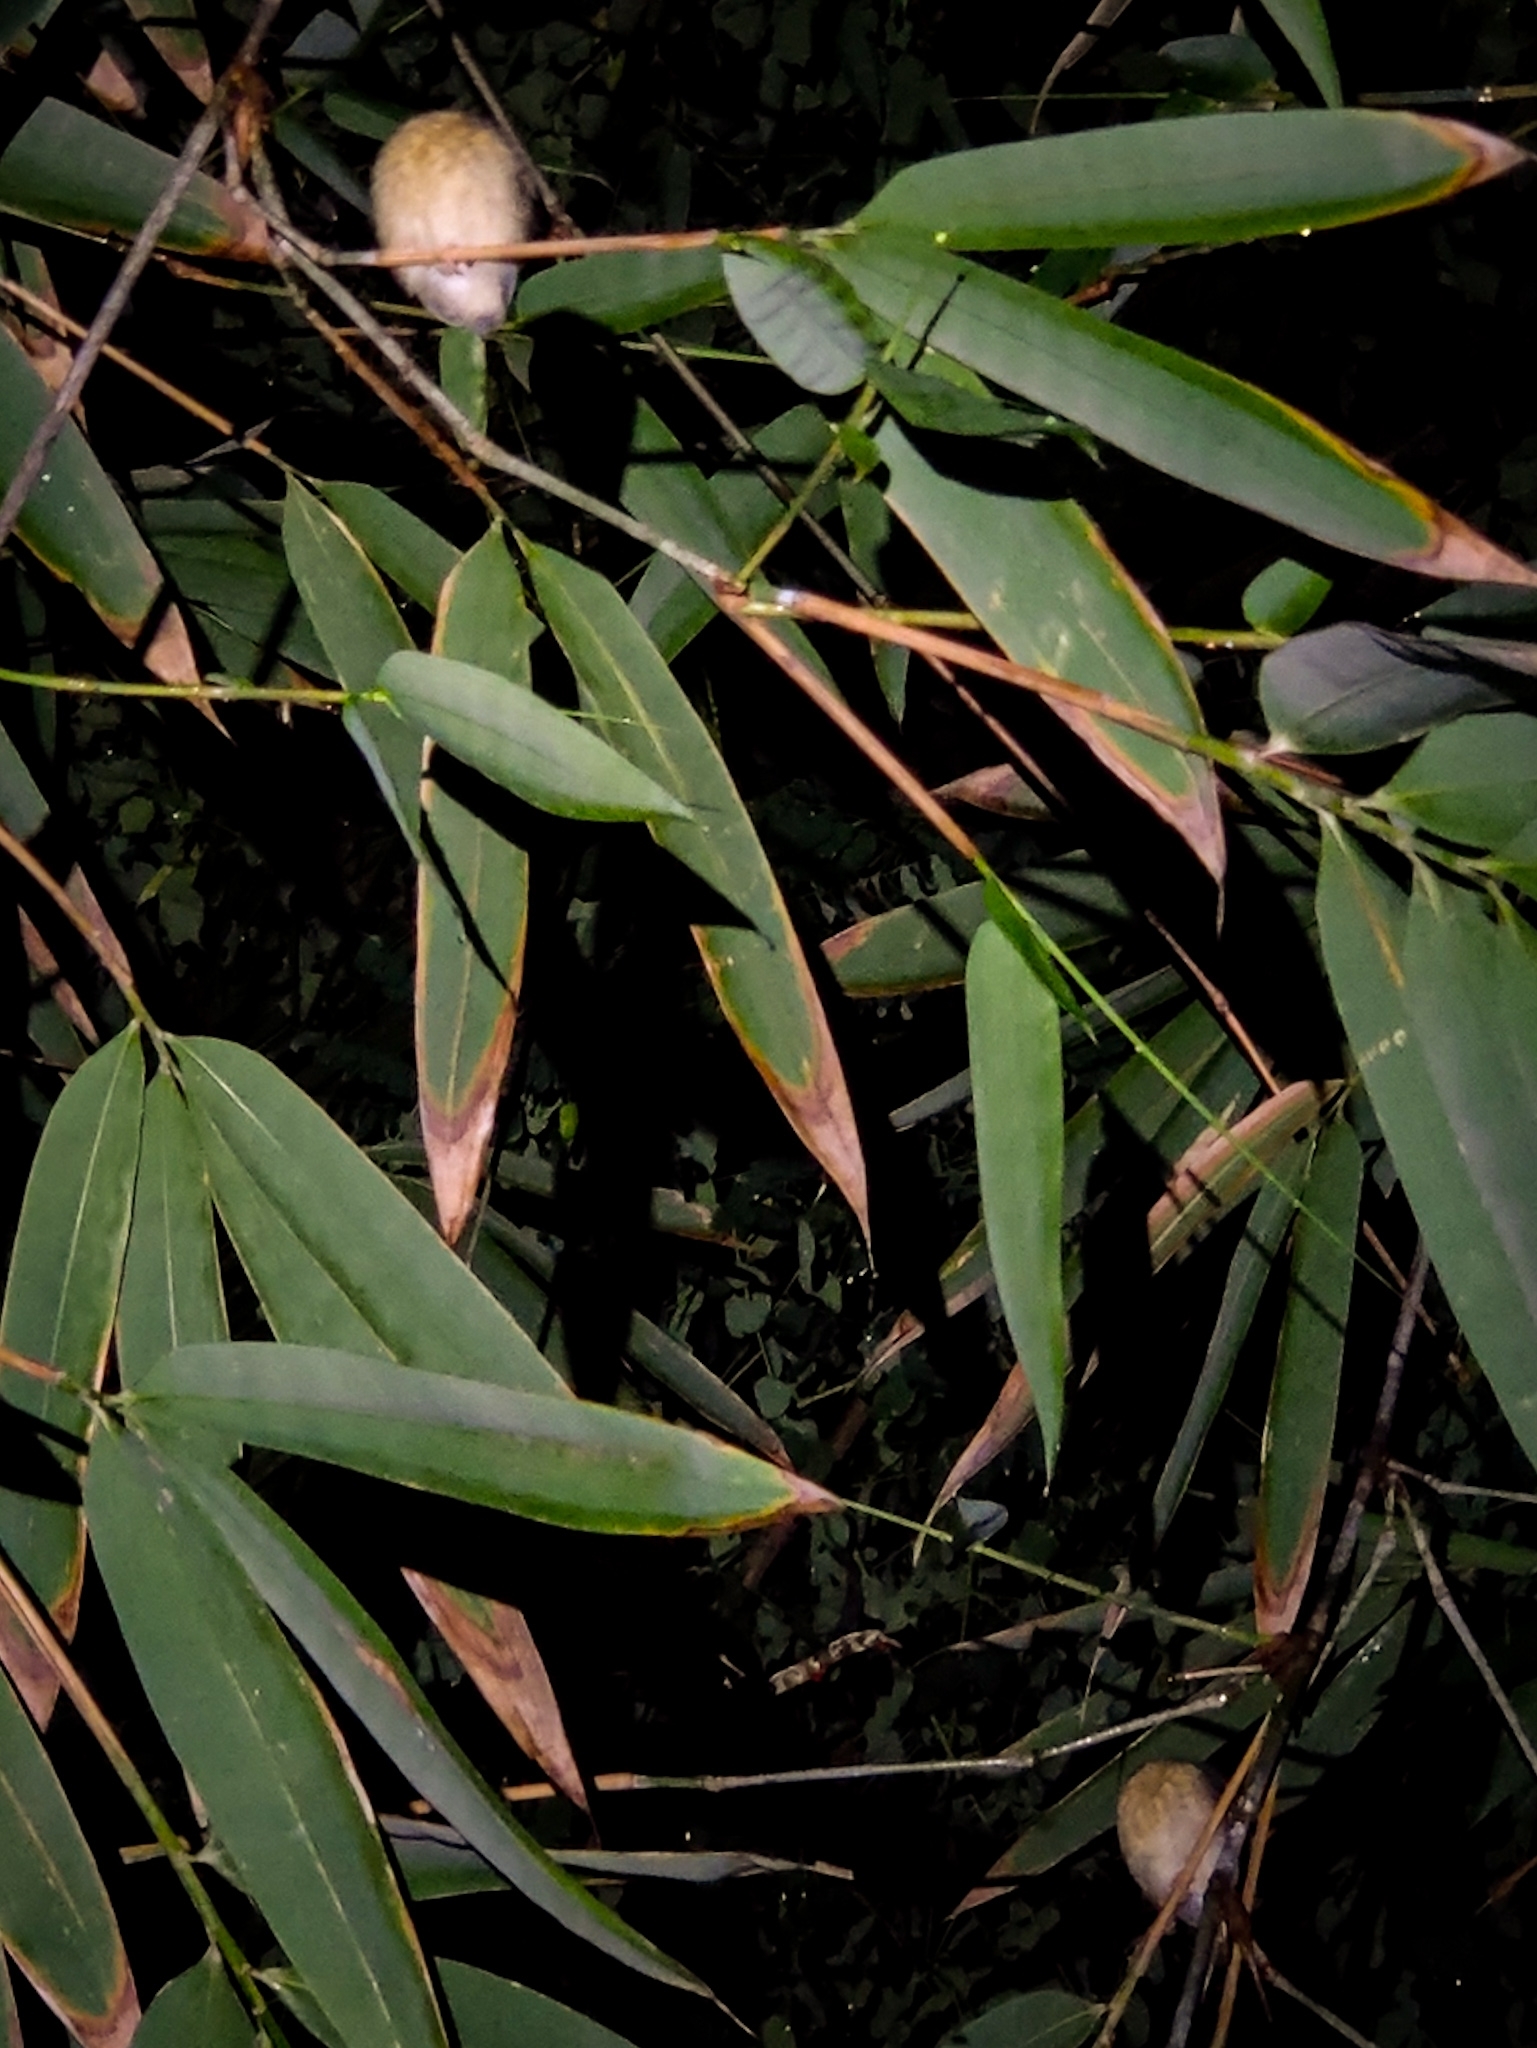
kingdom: Animalia
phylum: Chordata
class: Aves
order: Passeriformes
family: Muscicapidae
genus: Cyornis
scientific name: Cyornis tickelliae
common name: Tickell's blue flycatcher
